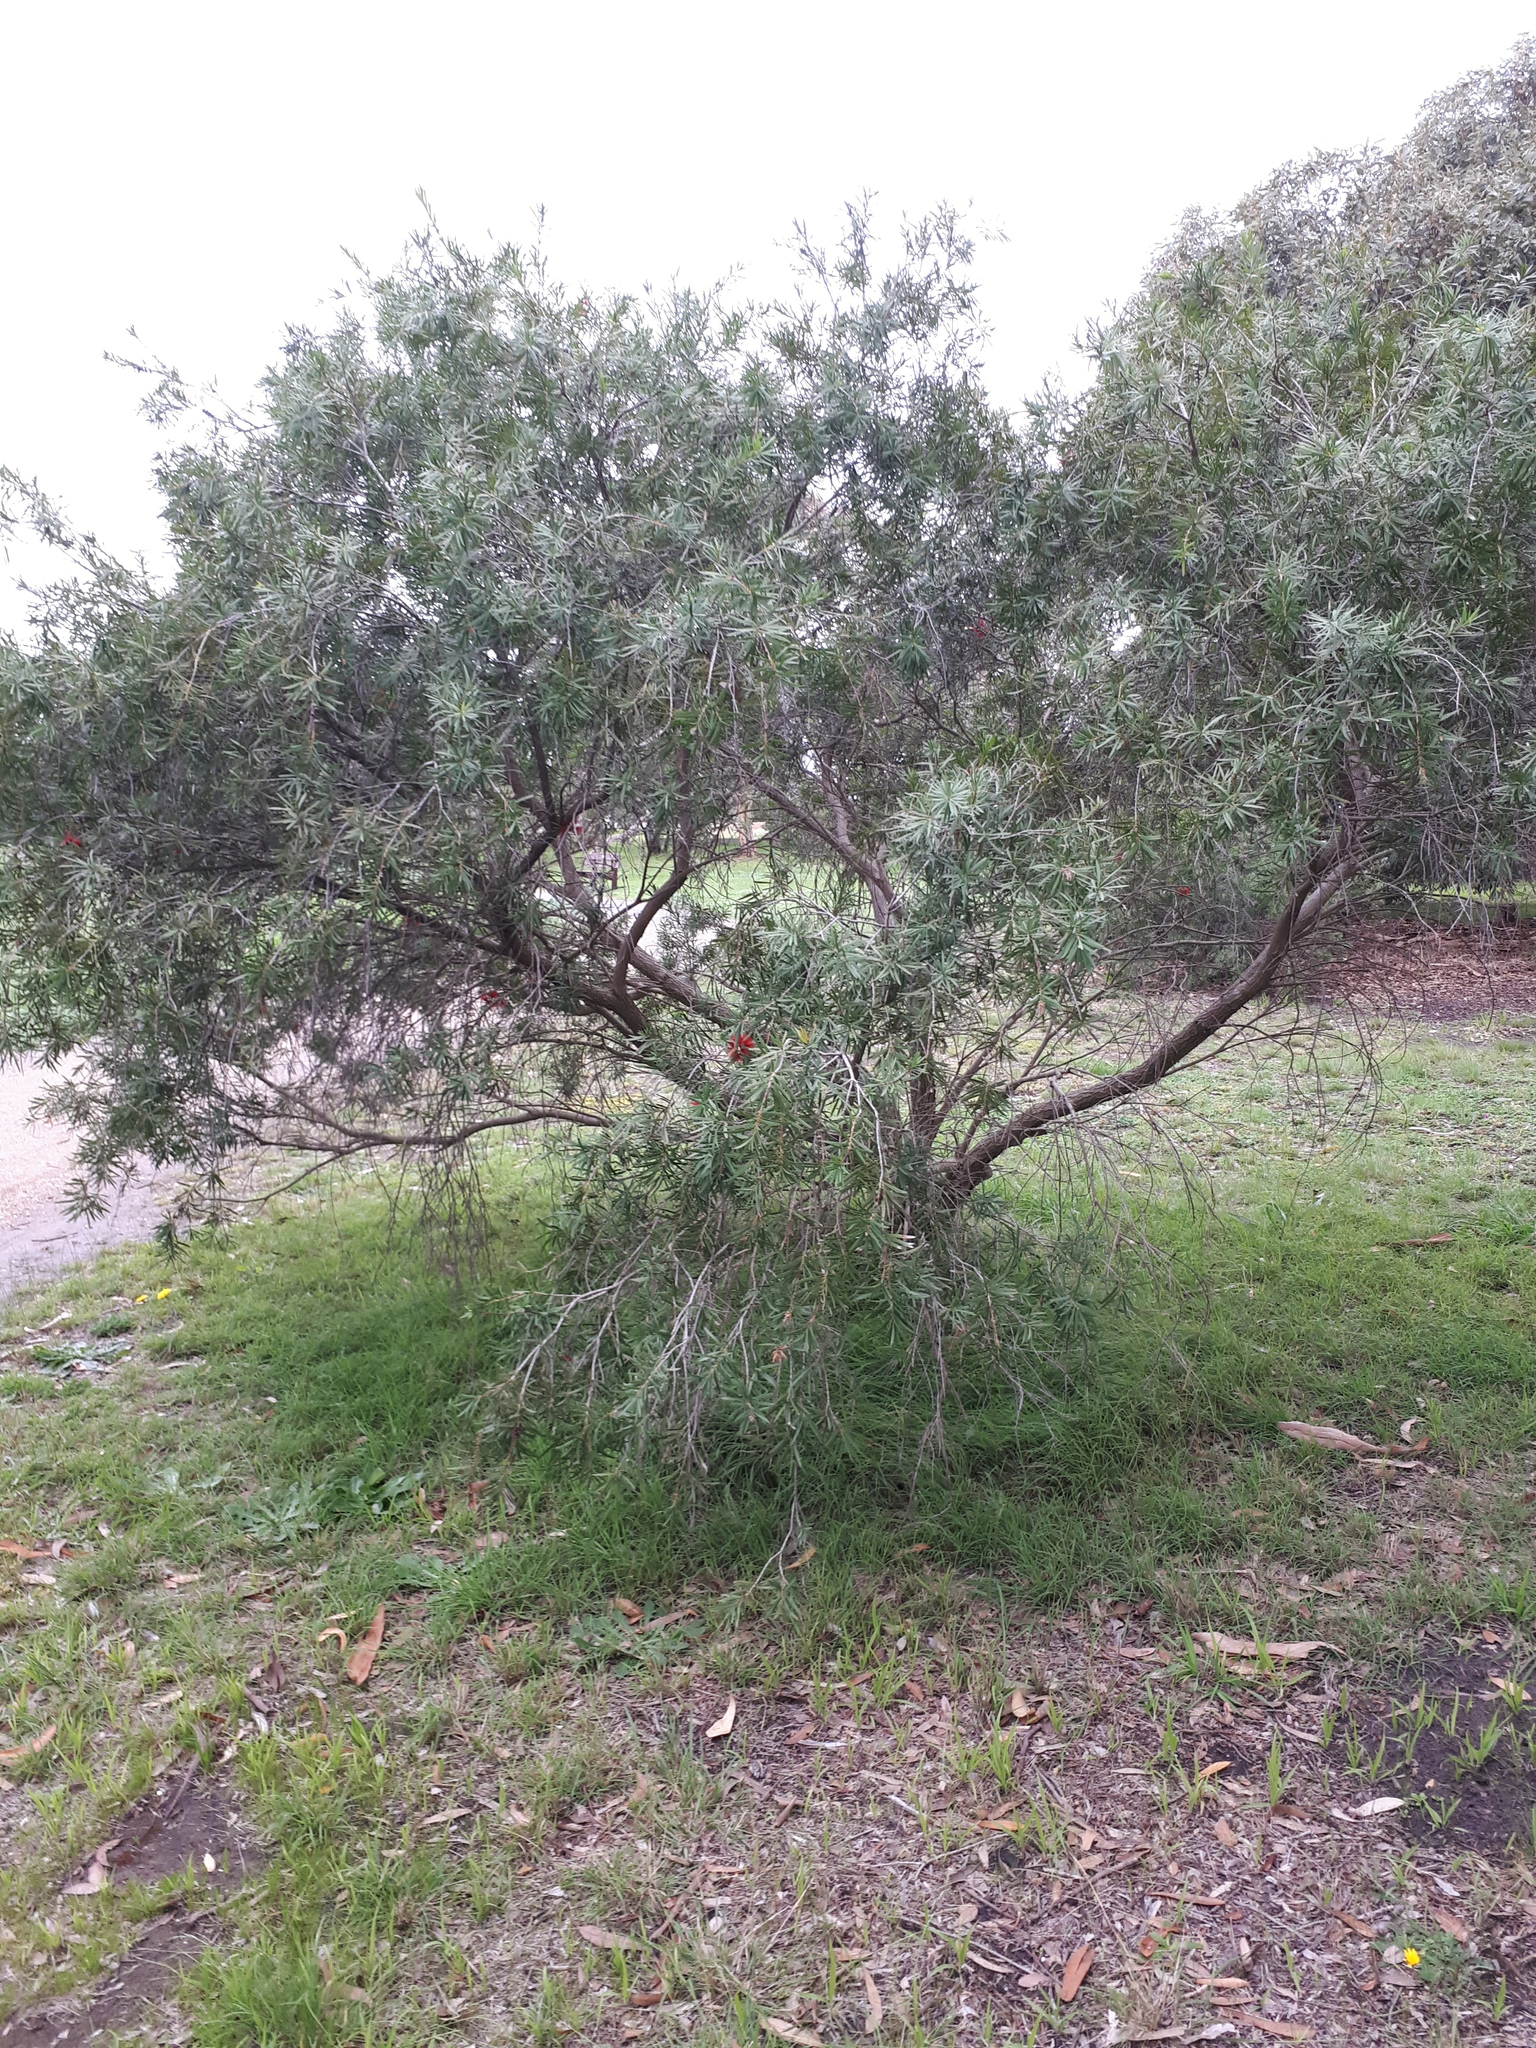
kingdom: Plantae
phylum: Tracheophyta
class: Magnoliopsida
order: Myrtales
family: Myrtaceae
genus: Melaleuca
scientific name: Melaleuca
